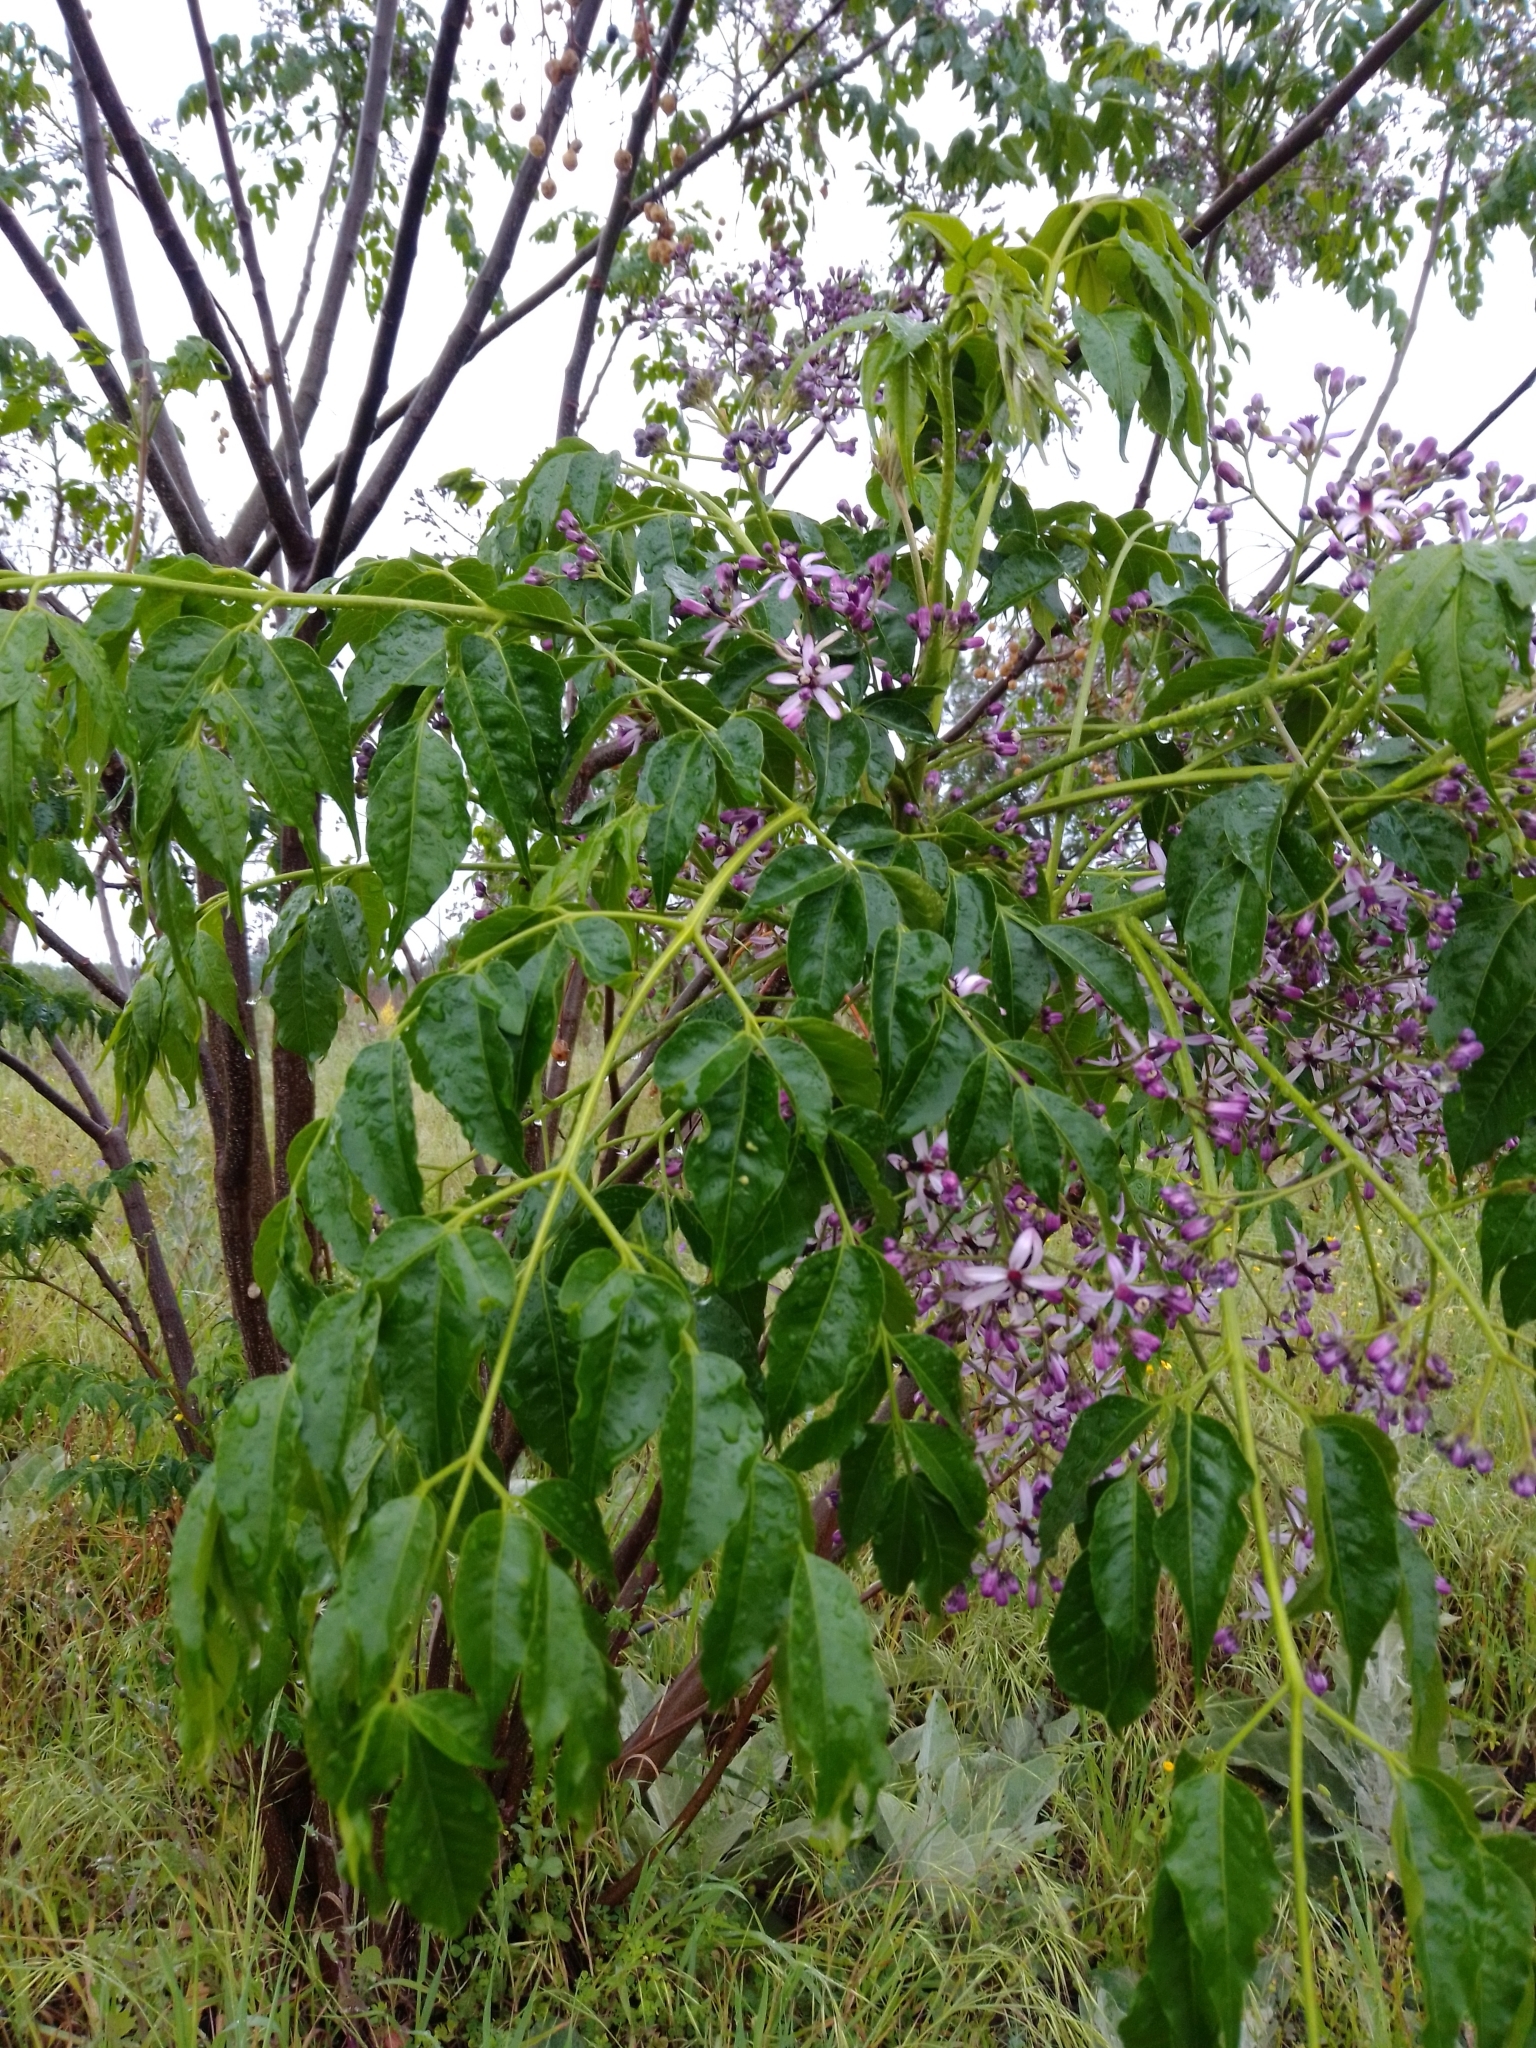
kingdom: Plantae
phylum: Tracheophyta
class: Magnoliopsida
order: Sapindales
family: Meliaceae
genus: Melia
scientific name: Melia azedarach
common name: Chinaberrytree
